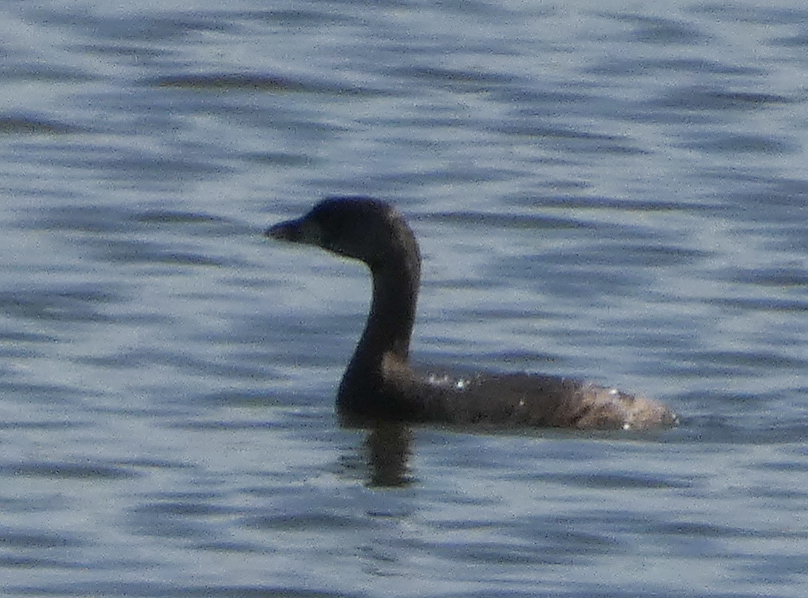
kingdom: Animalia
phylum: Chordata
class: Aves
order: Podicipediformes
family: Podicipedidae
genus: Podilymbus
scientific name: Podilymbus podiceps
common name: Pied-billed grebe
